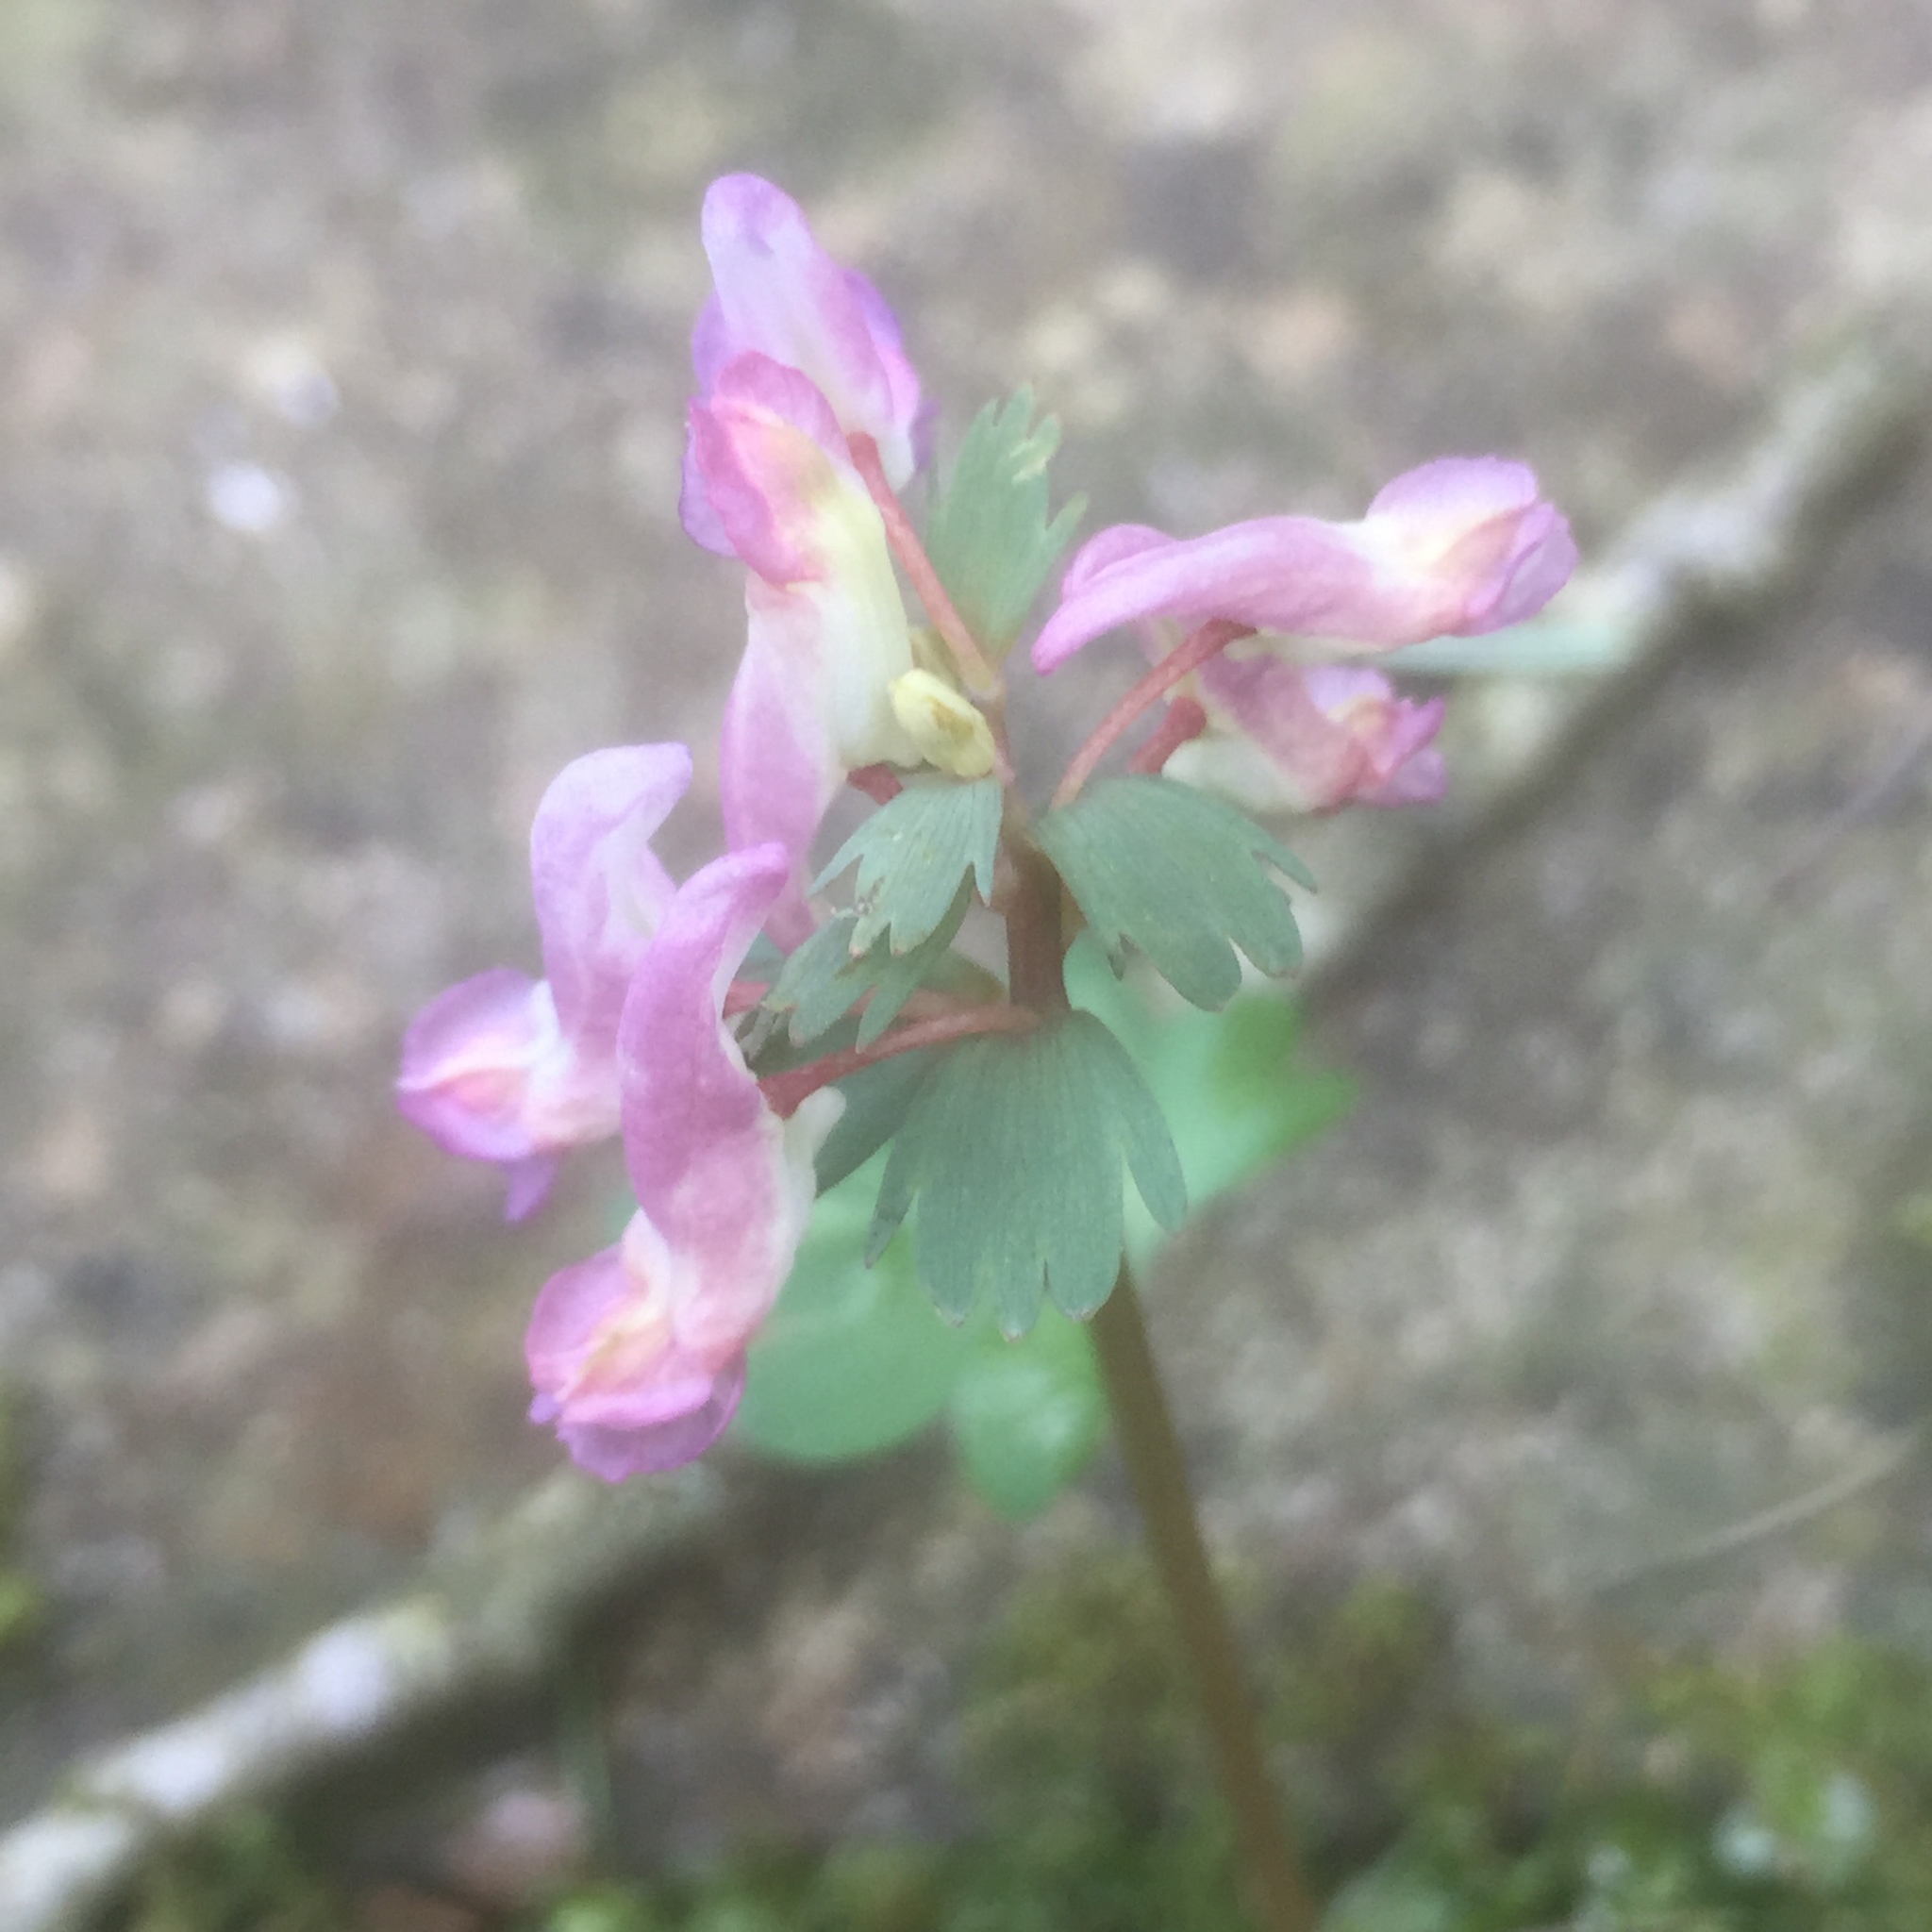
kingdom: Plantae
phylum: Tracheophyta
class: Magnoliopsida
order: Ranunculales
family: Papaveraceae
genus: Corydalis
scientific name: Corydalis solida
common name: Bird-in-a-bush
